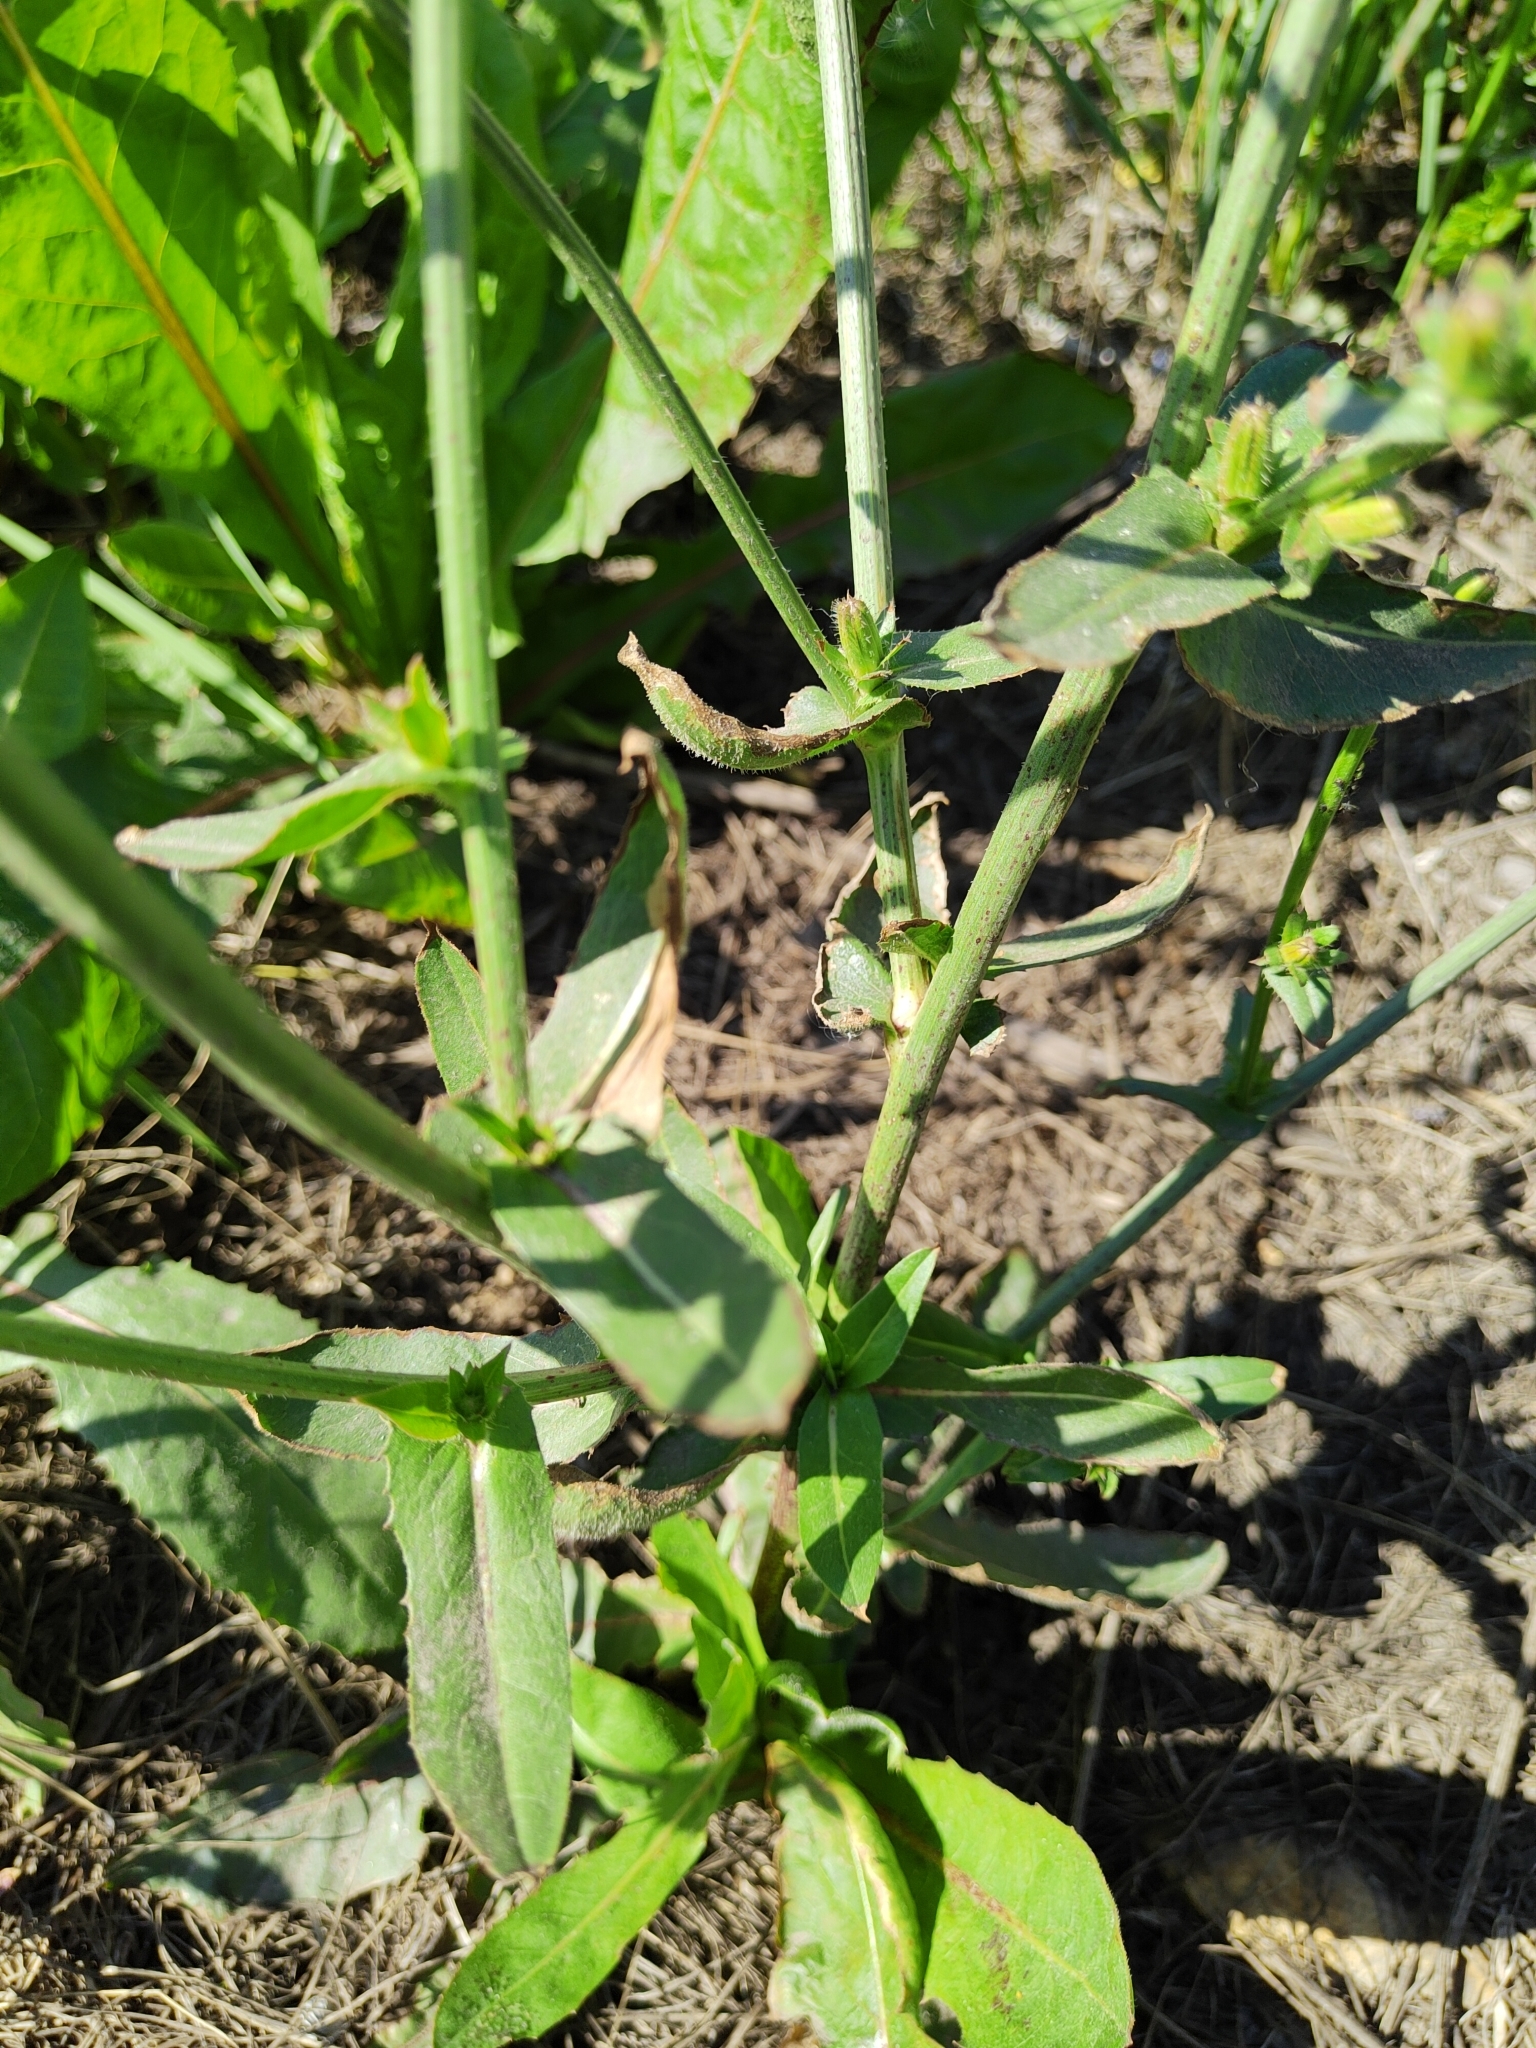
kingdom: Plantae
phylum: Tracheophyta
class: Magnoliopsida
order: Asterales
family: Asteraceae
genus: Cichorium
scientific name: Cichorium intybus
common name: Chicory
